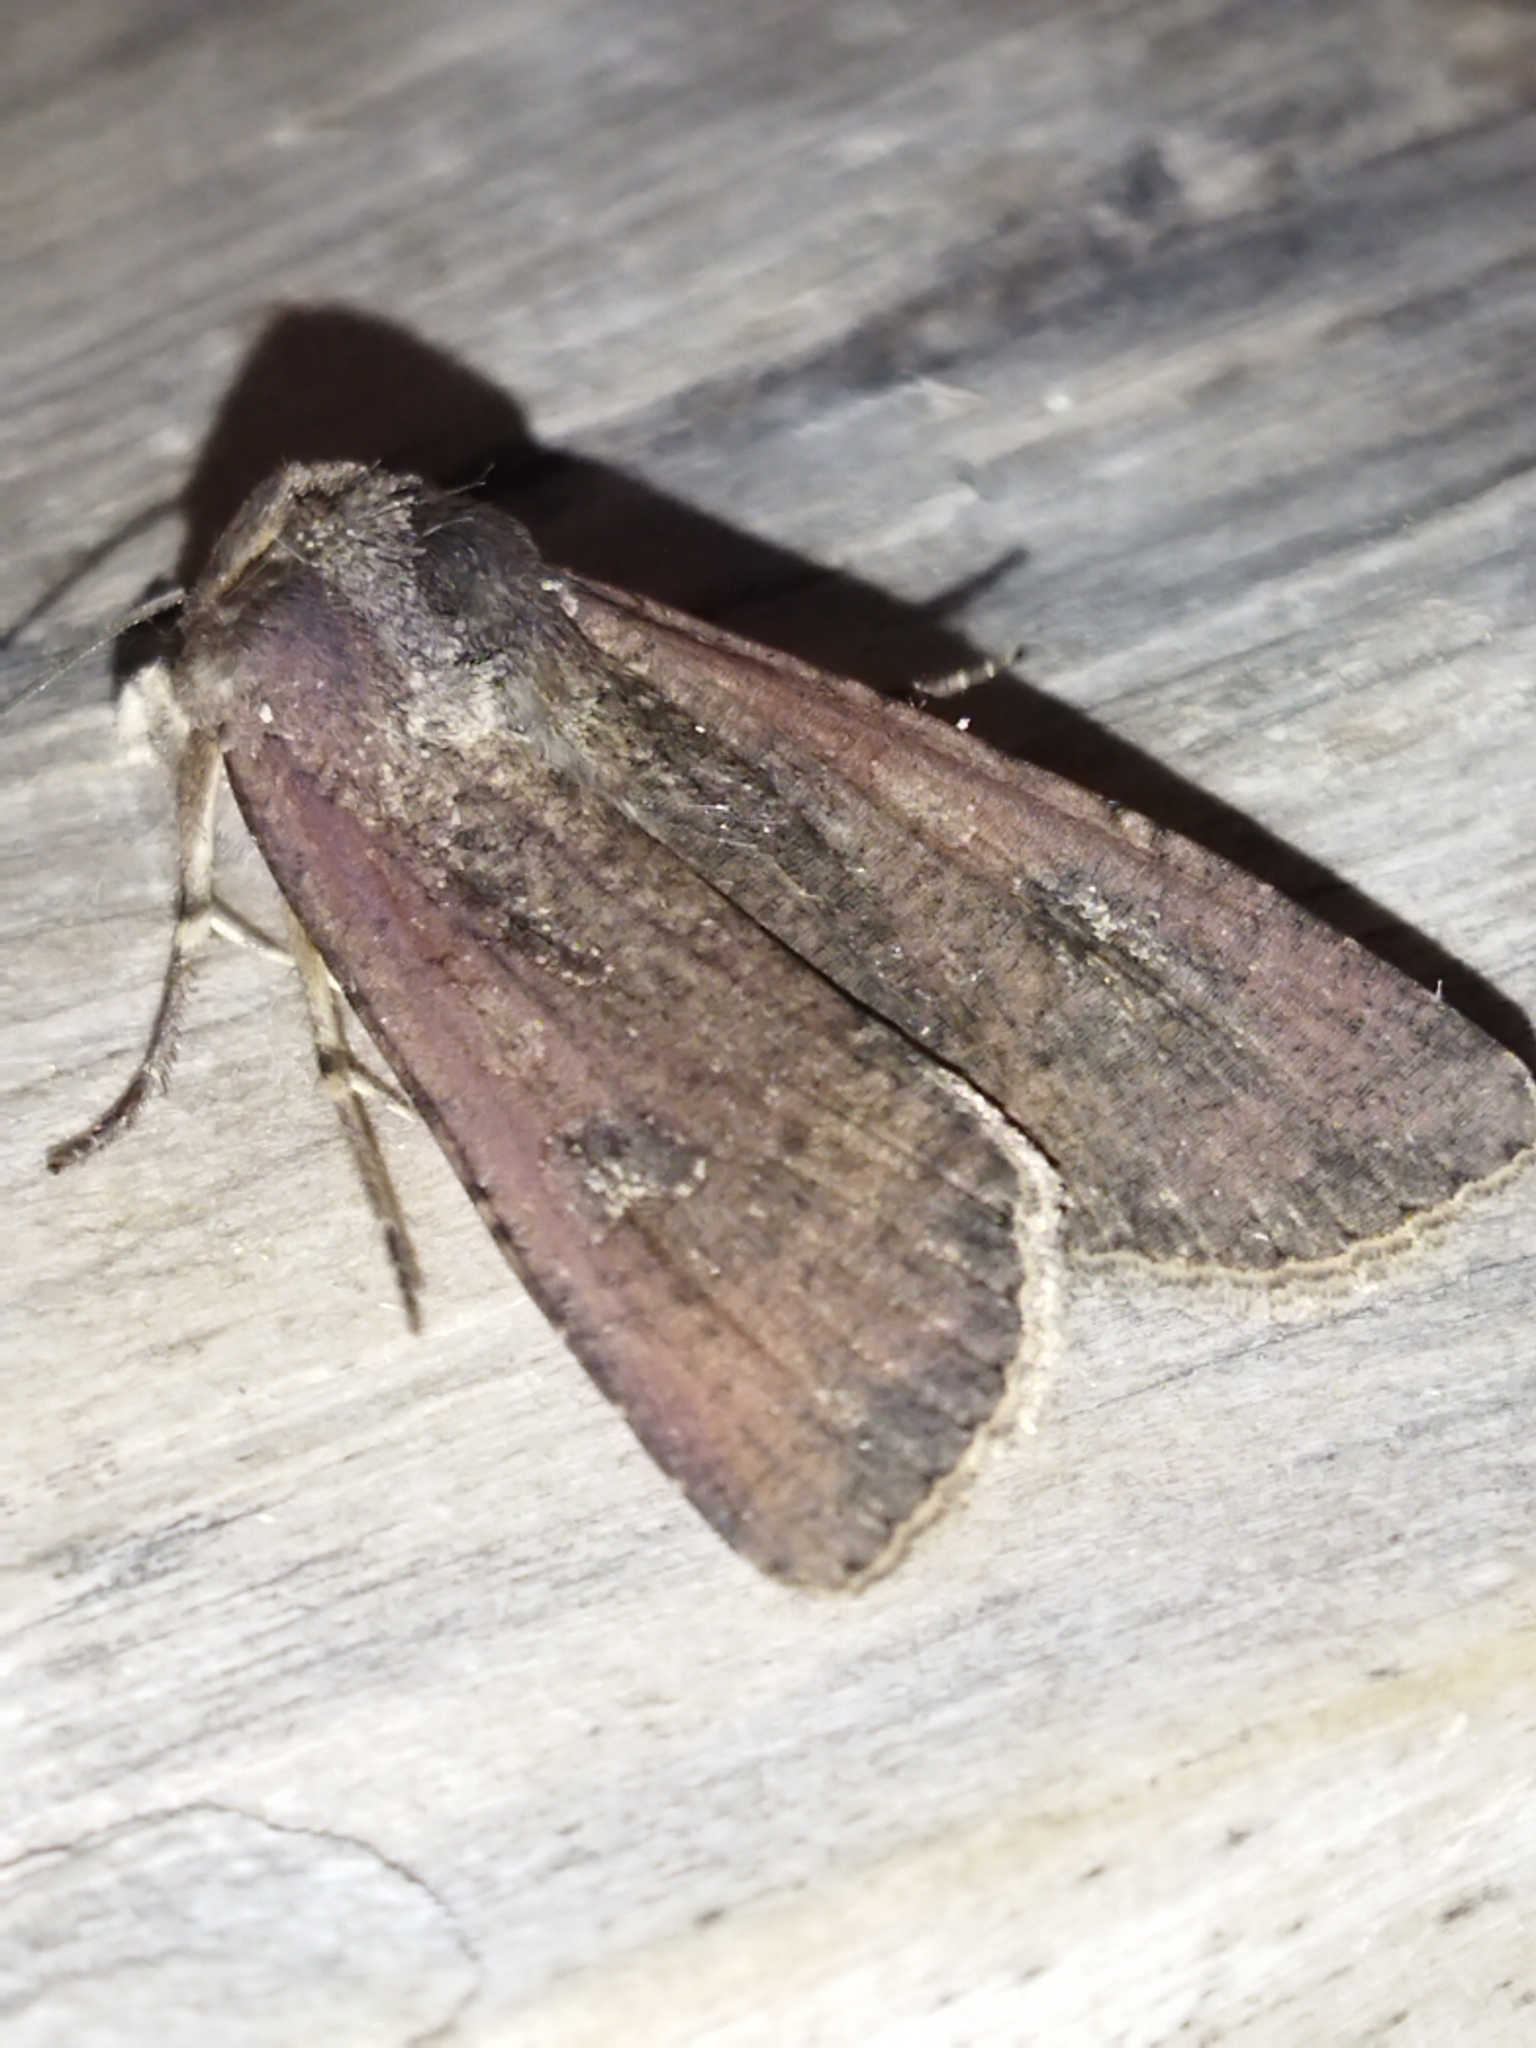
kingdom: Animalia
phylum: Arthropoda
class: Insecta
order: Lepidoptera
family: Noctuidae
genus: Peridroma
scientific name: Peridroma saucia
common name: Pearly underwing
